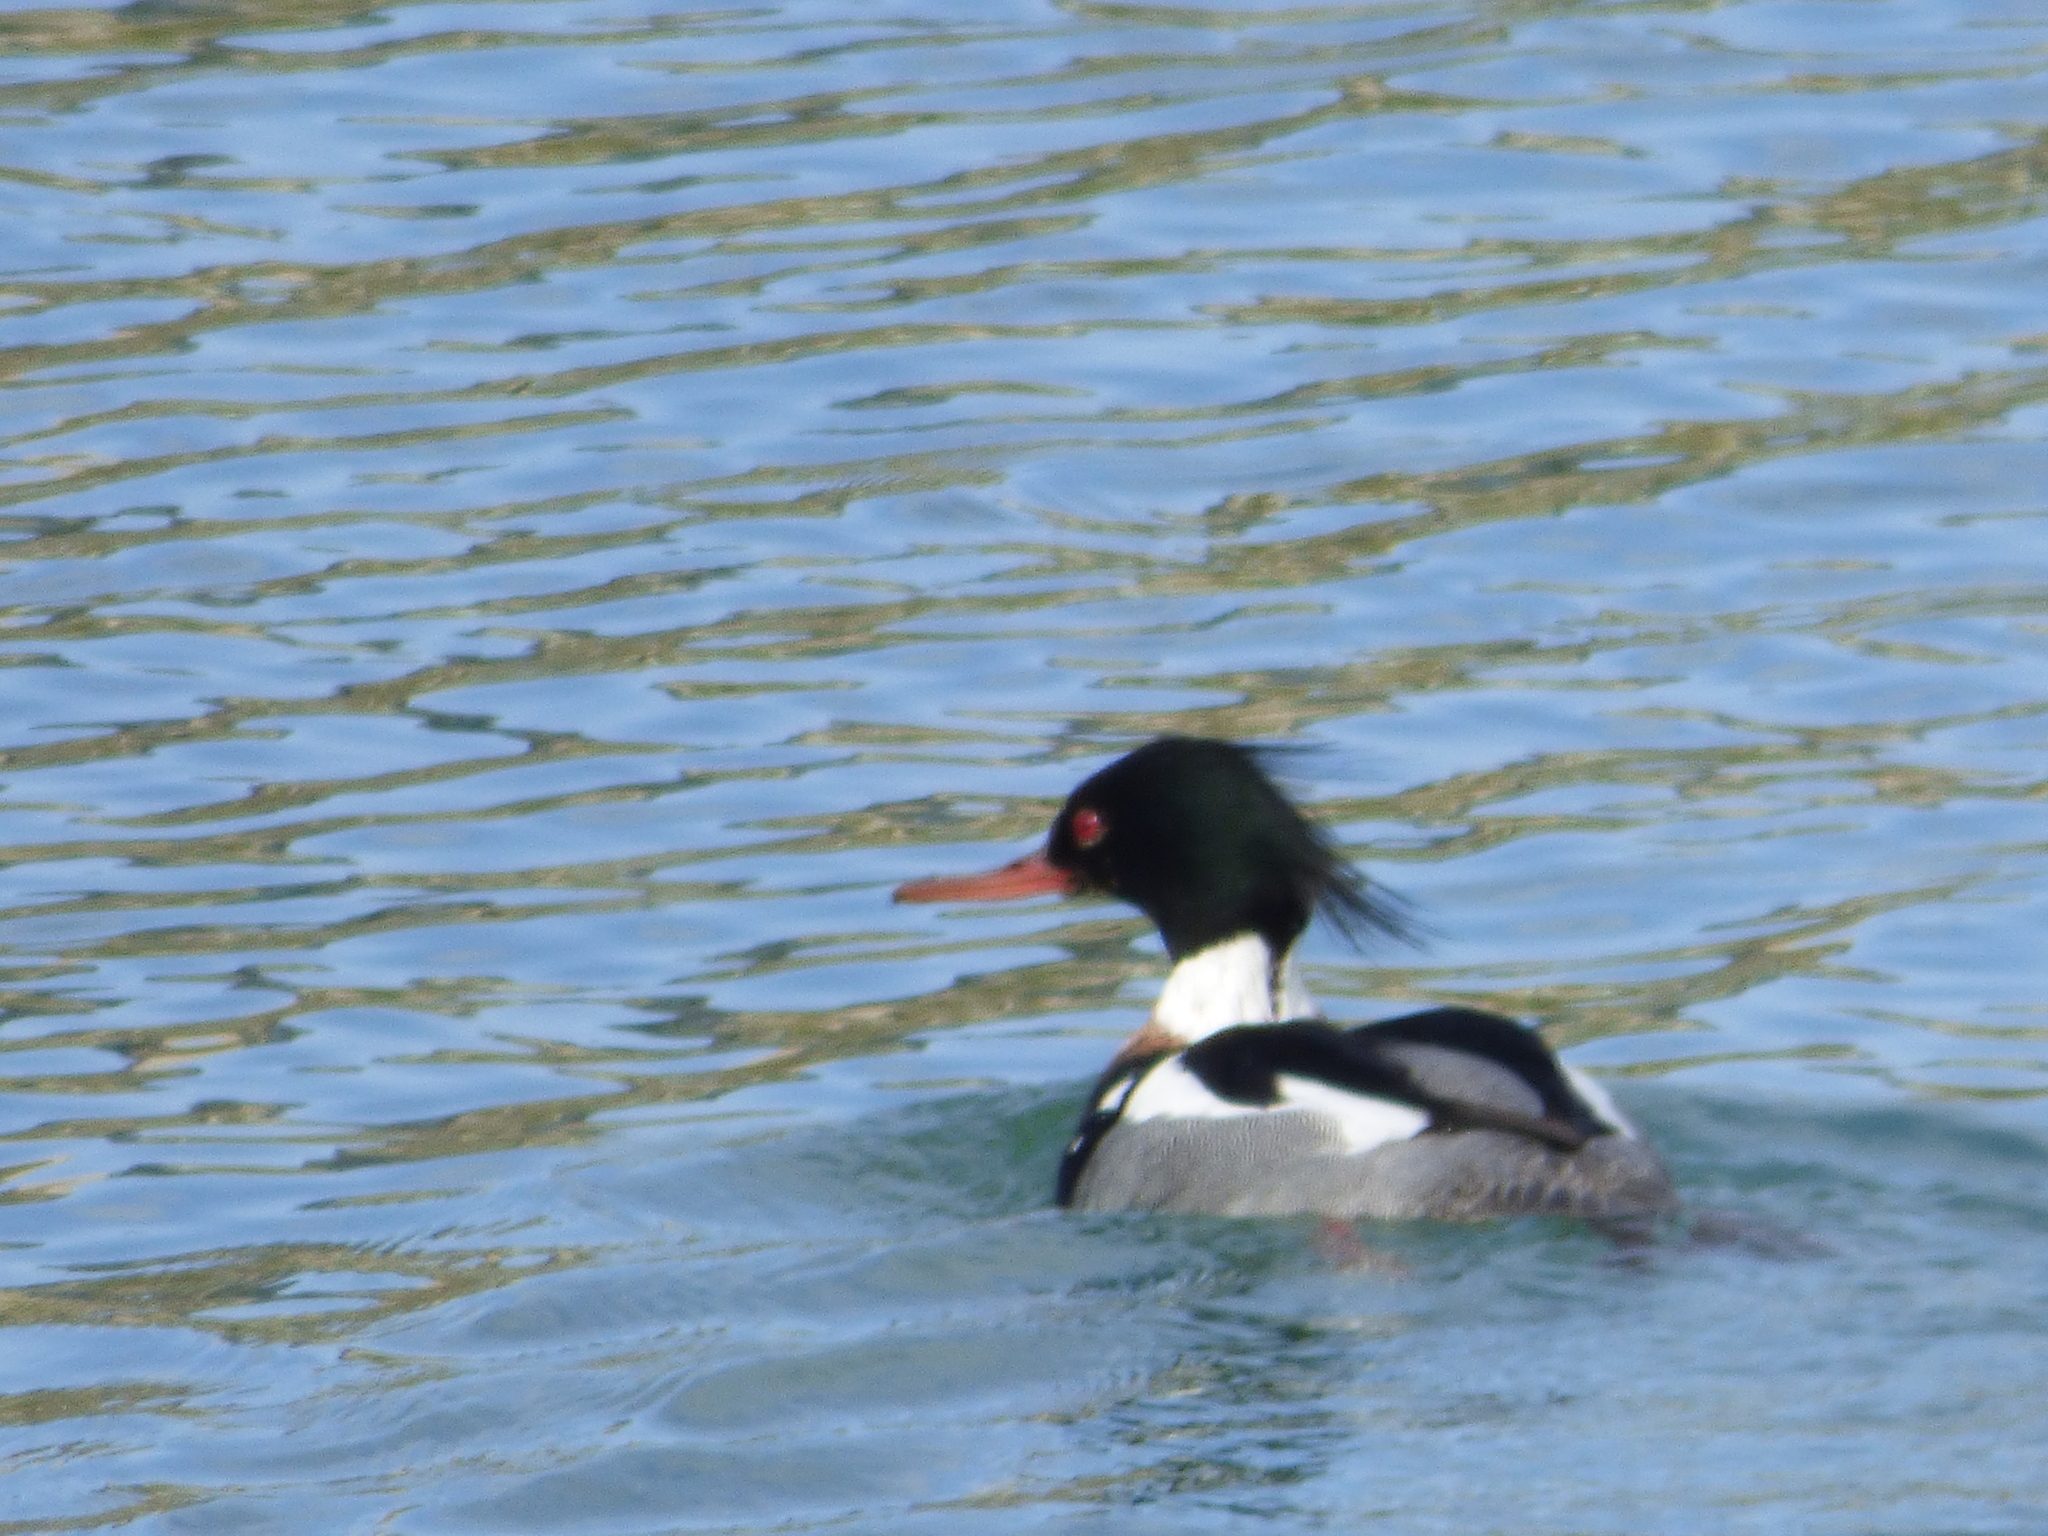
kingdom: Animalia
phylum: Chordata
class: Aves
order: Anseriformes
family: Anatidae
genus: Mergus
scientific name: Mergus serrator
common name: Red-breasted merganser
